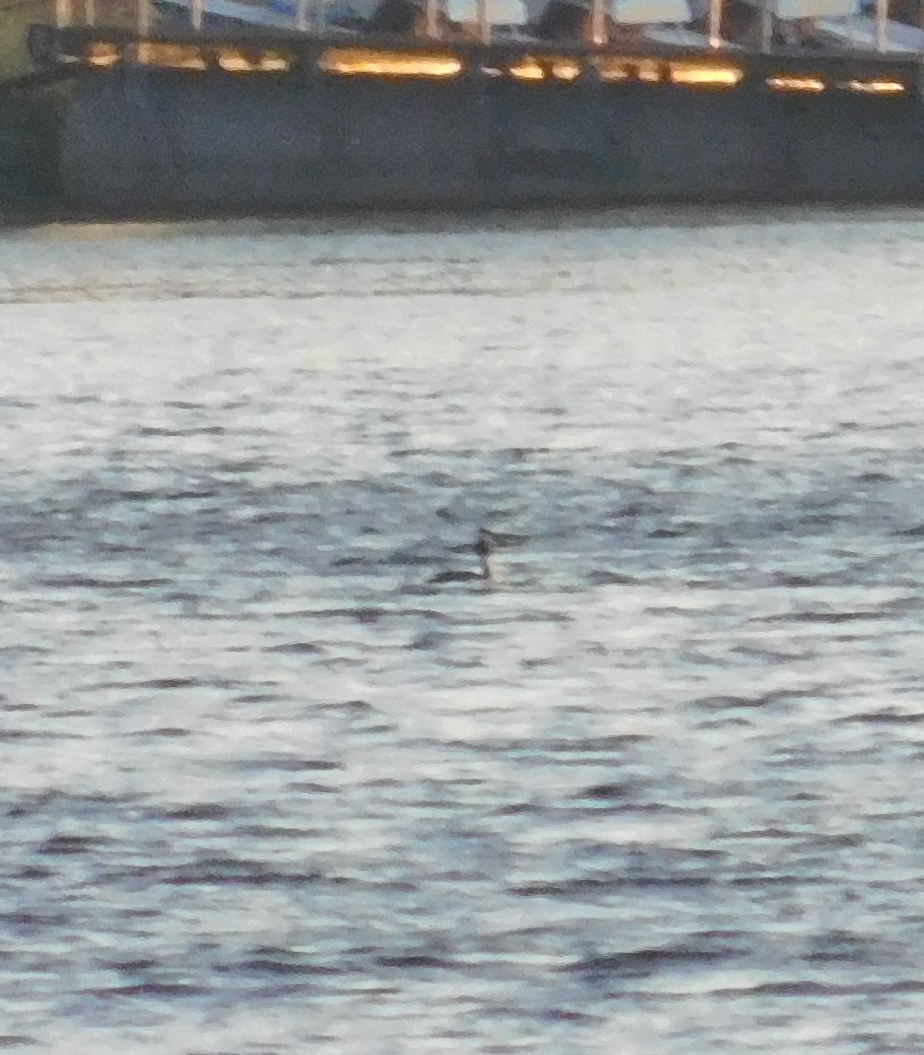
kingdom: Animalia
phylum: Chordata
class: Aves
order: Podicipediformes
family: Podicipedidae
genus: Podiceps
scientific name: Podiceps cristatus
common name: Great crested grebe
